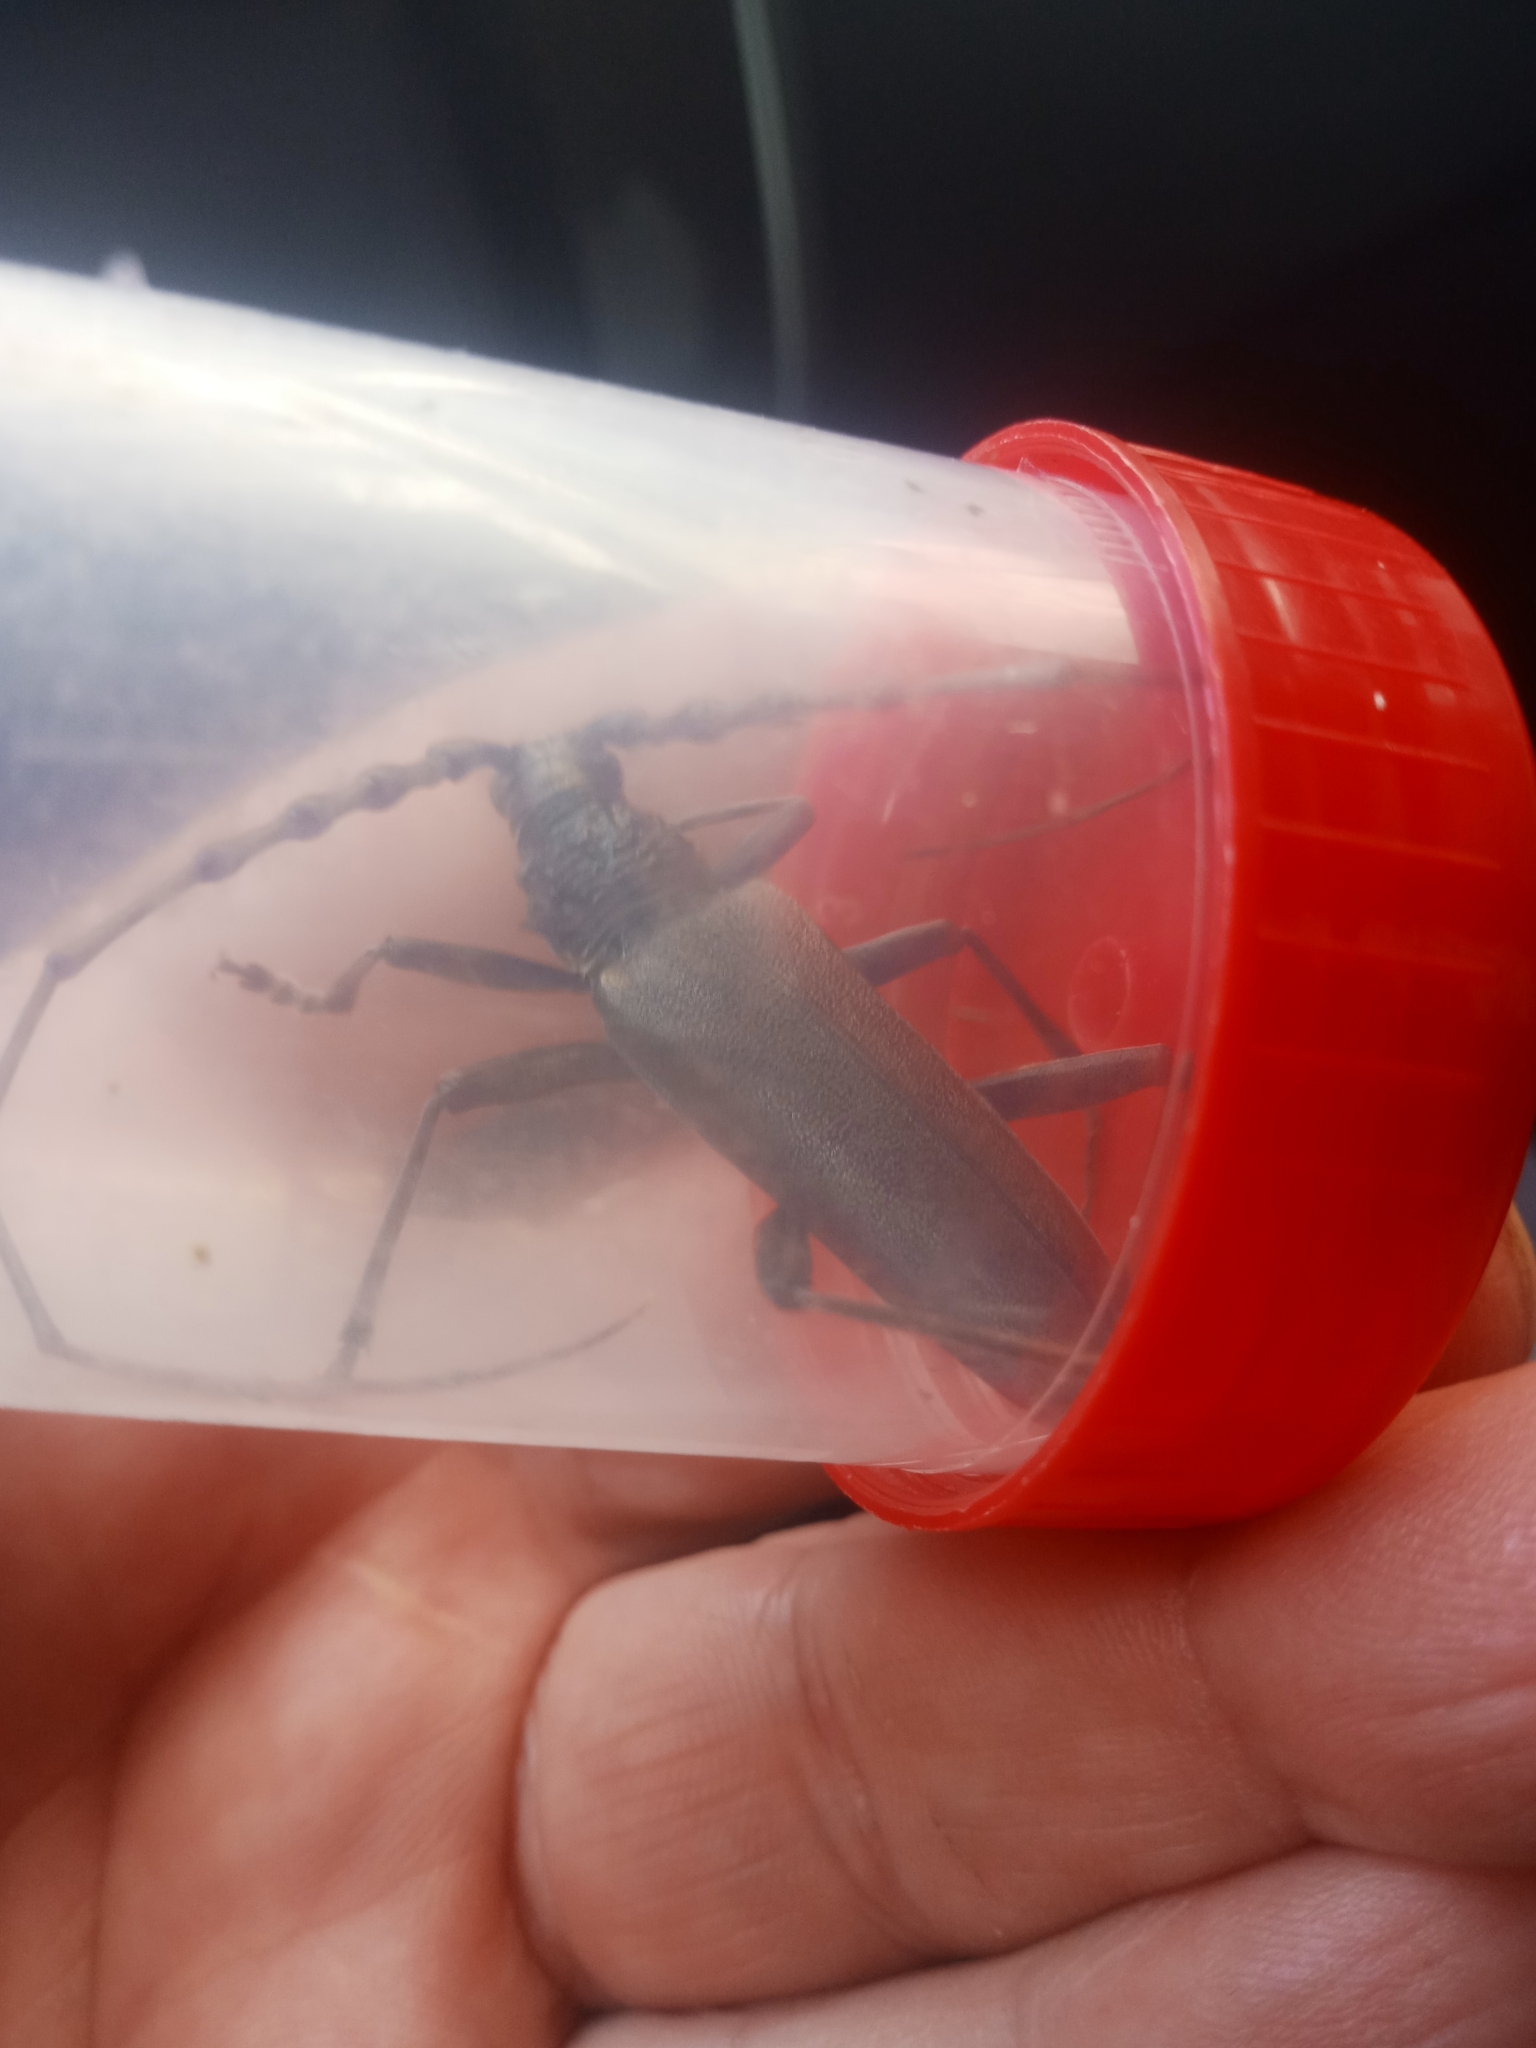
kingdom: Animalia
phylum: Arthropoda
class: Insecta
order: Coleoptera
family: Cerambycidae
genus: Cerambyx
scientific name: Cerambyx cerdo
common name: Cerambyx longicorn
